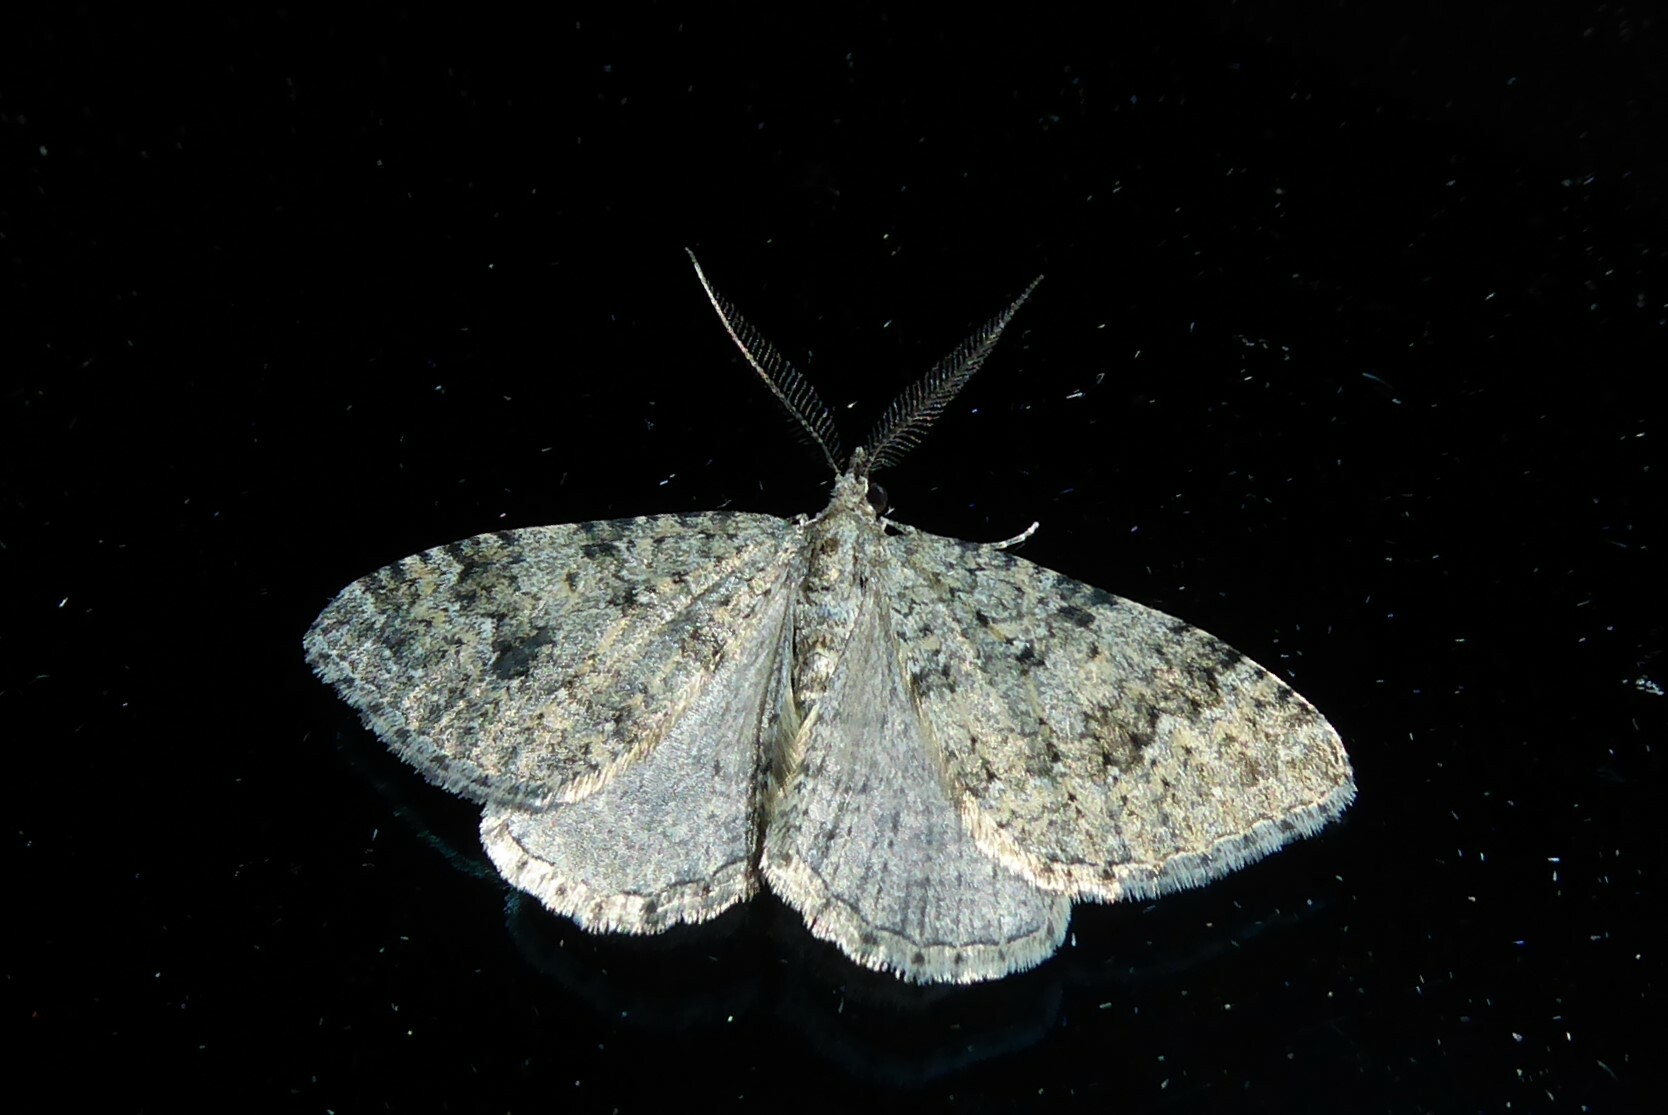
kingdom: Animalia
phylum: Arthropoda
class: Insecta
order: Lepidoptera
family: Geometridae
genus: Helastia
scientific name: Helastia corcularia
